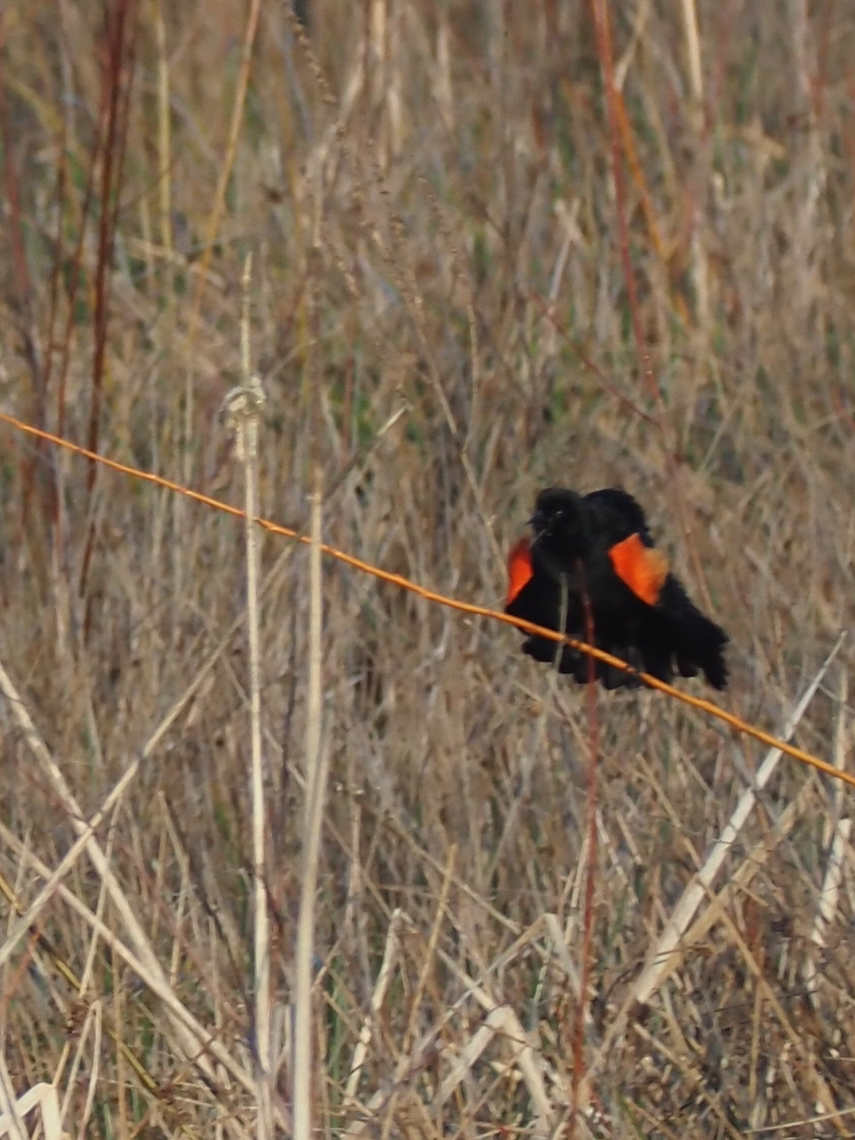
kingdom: Animalia
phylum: Chordata
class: Aves
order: Passeriformes
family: Icteridae
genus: Agelaius
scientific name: Agelaius phoeniceus
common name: Red-winged blackbird
